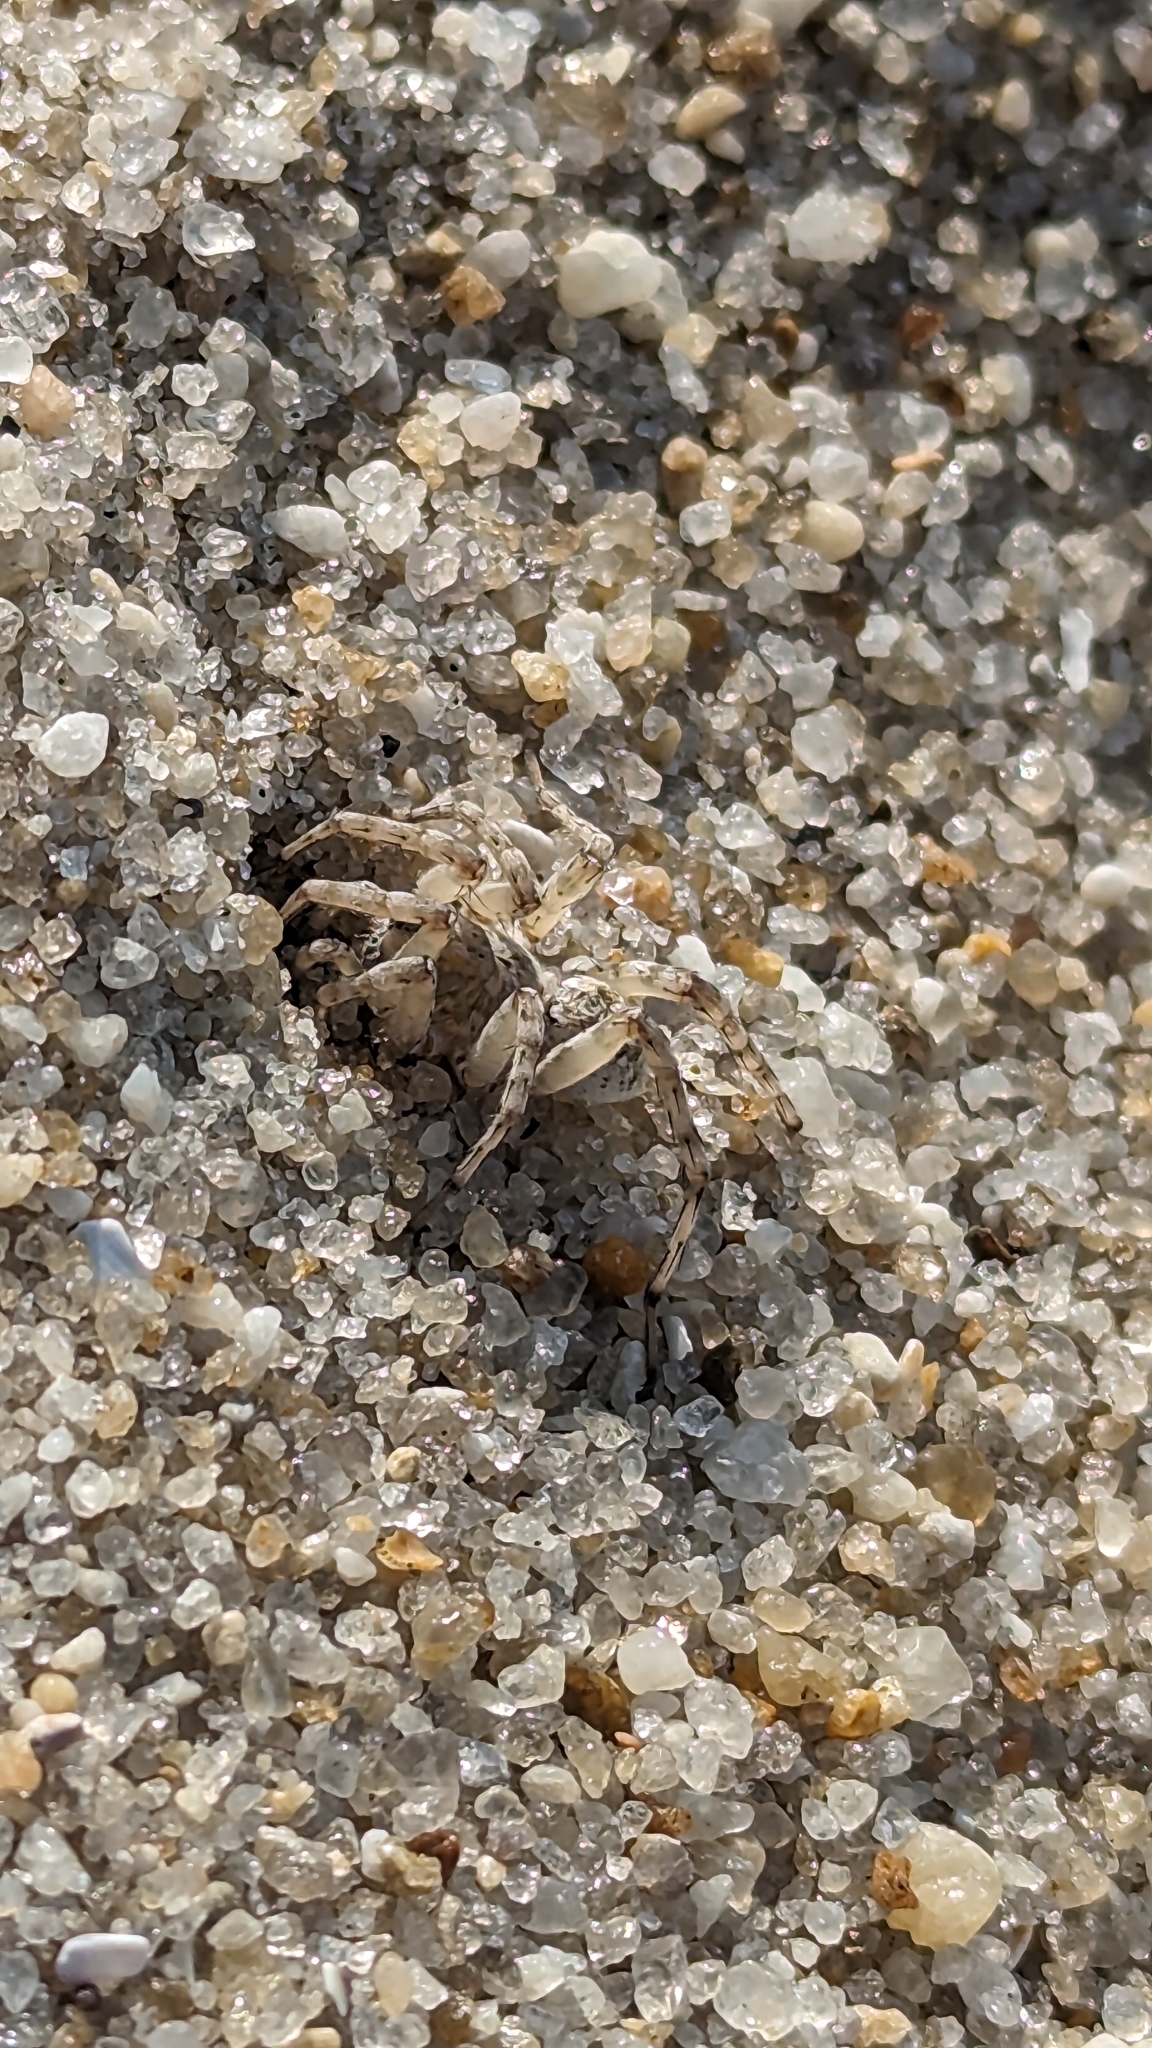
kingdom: Animalia
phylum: Arthropoda
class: Arachnida
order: Araneae
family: Lycosidae
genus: Arctosa
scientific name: Arctosa littoralis
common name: Wolf spiders
